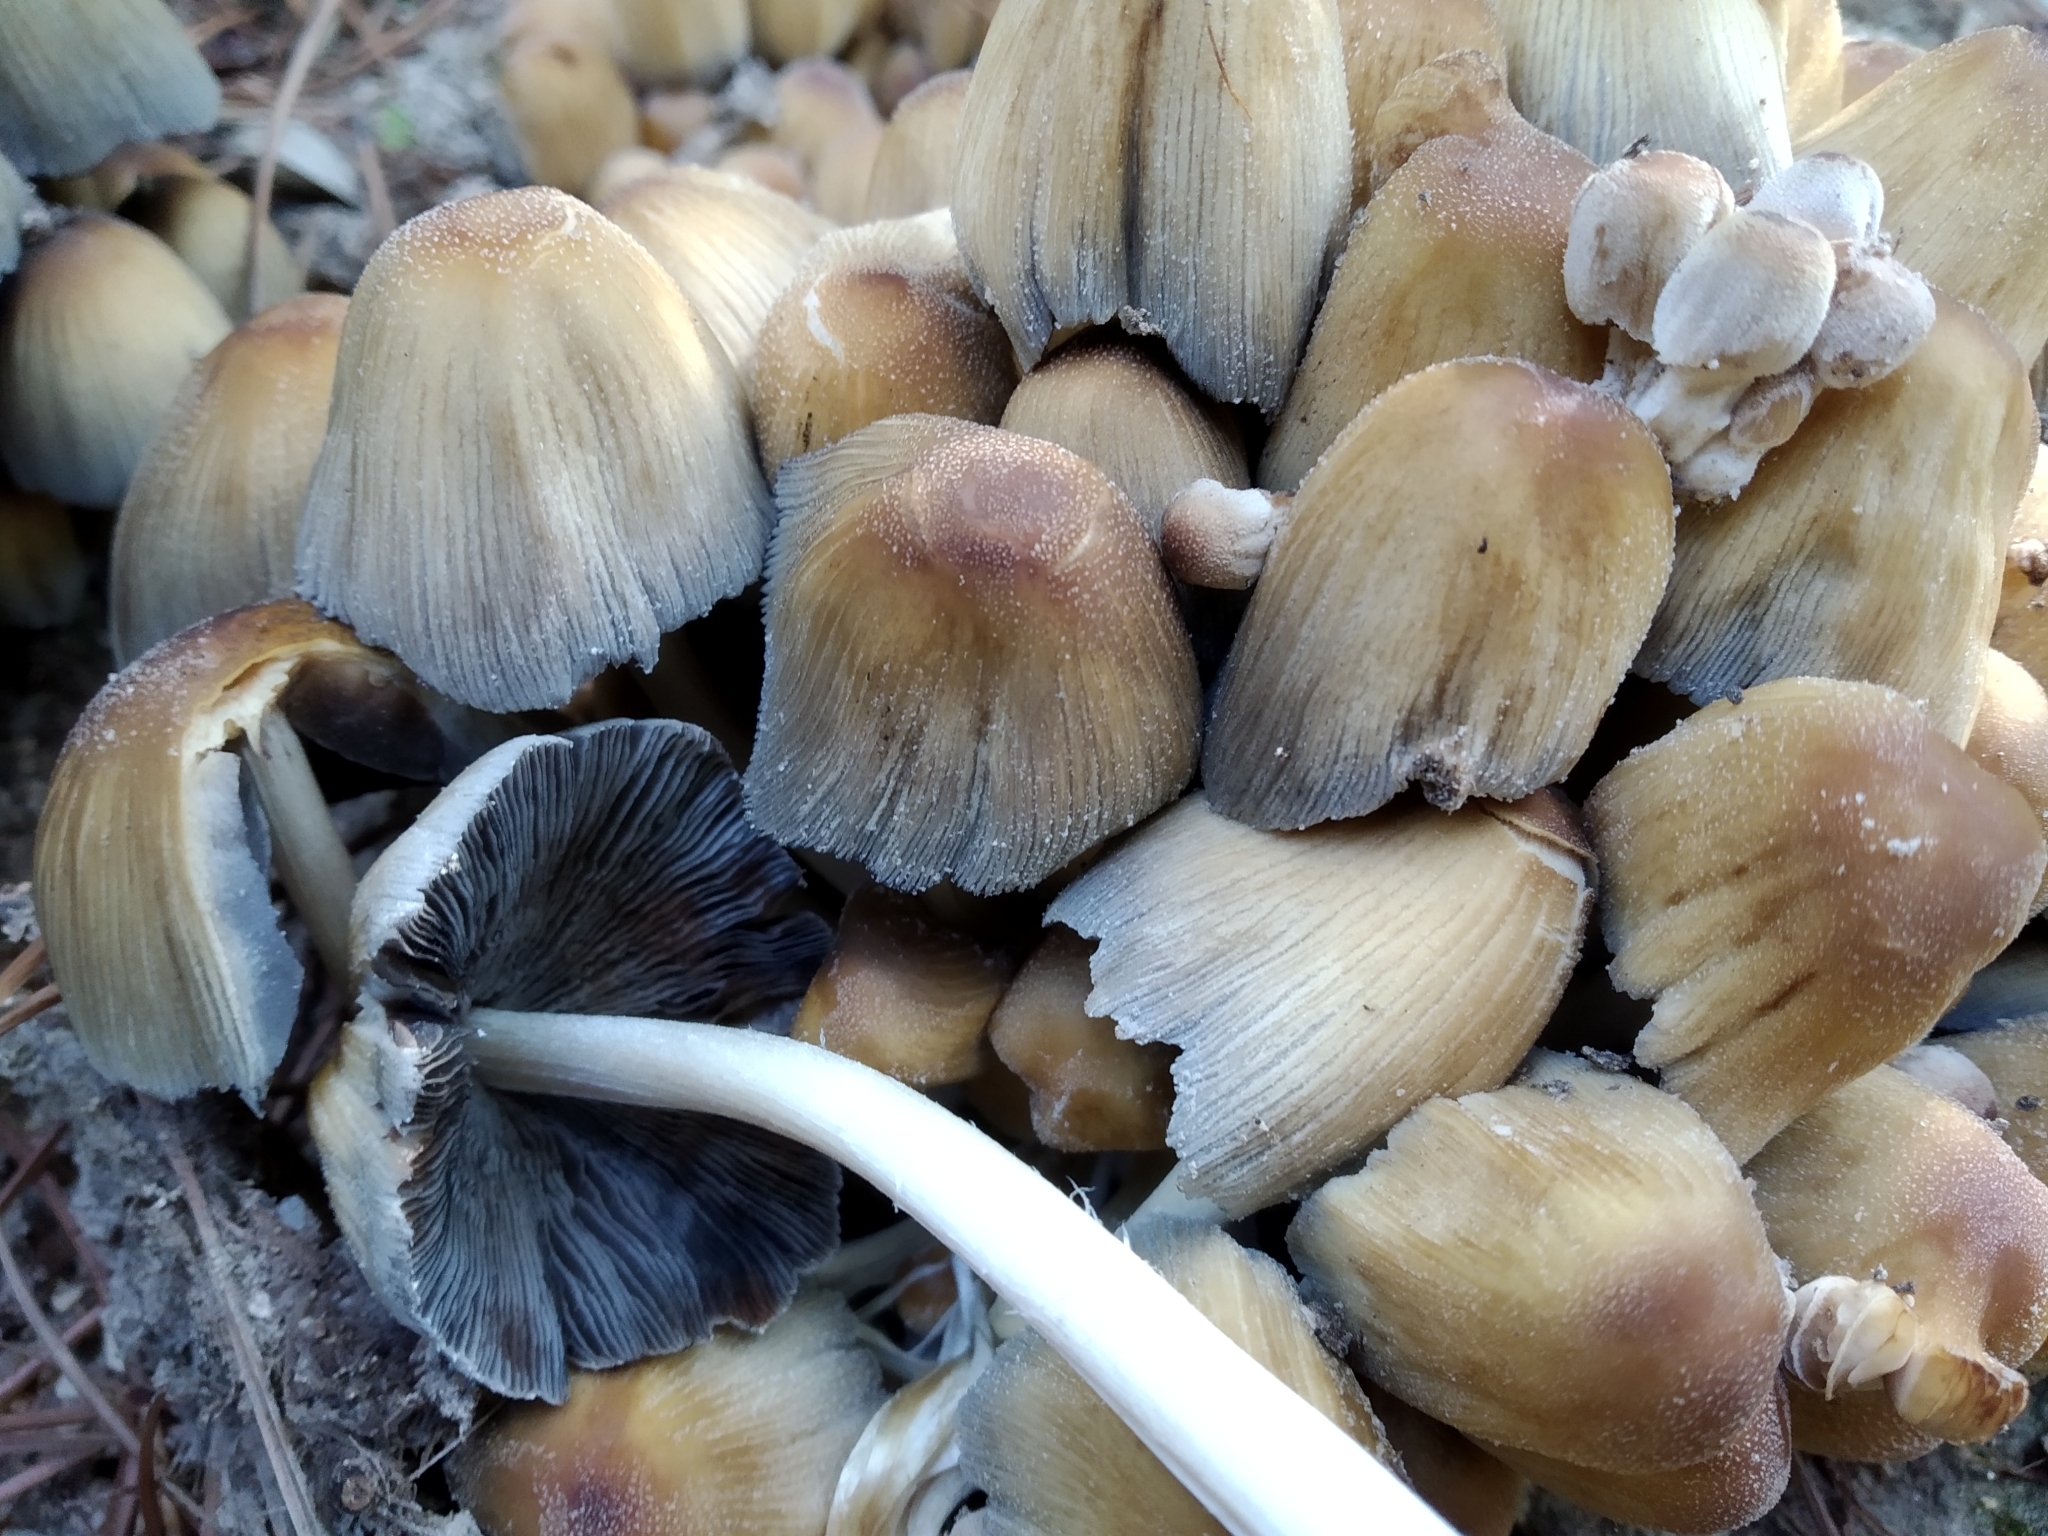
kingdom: Fungi
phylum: Basidiomycota
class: Agaricomycetes
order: Agaricales
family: Psathyrellaceae
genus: Coprinellus
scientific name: Coprinellus micaceus
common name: Glistening ink-cap
